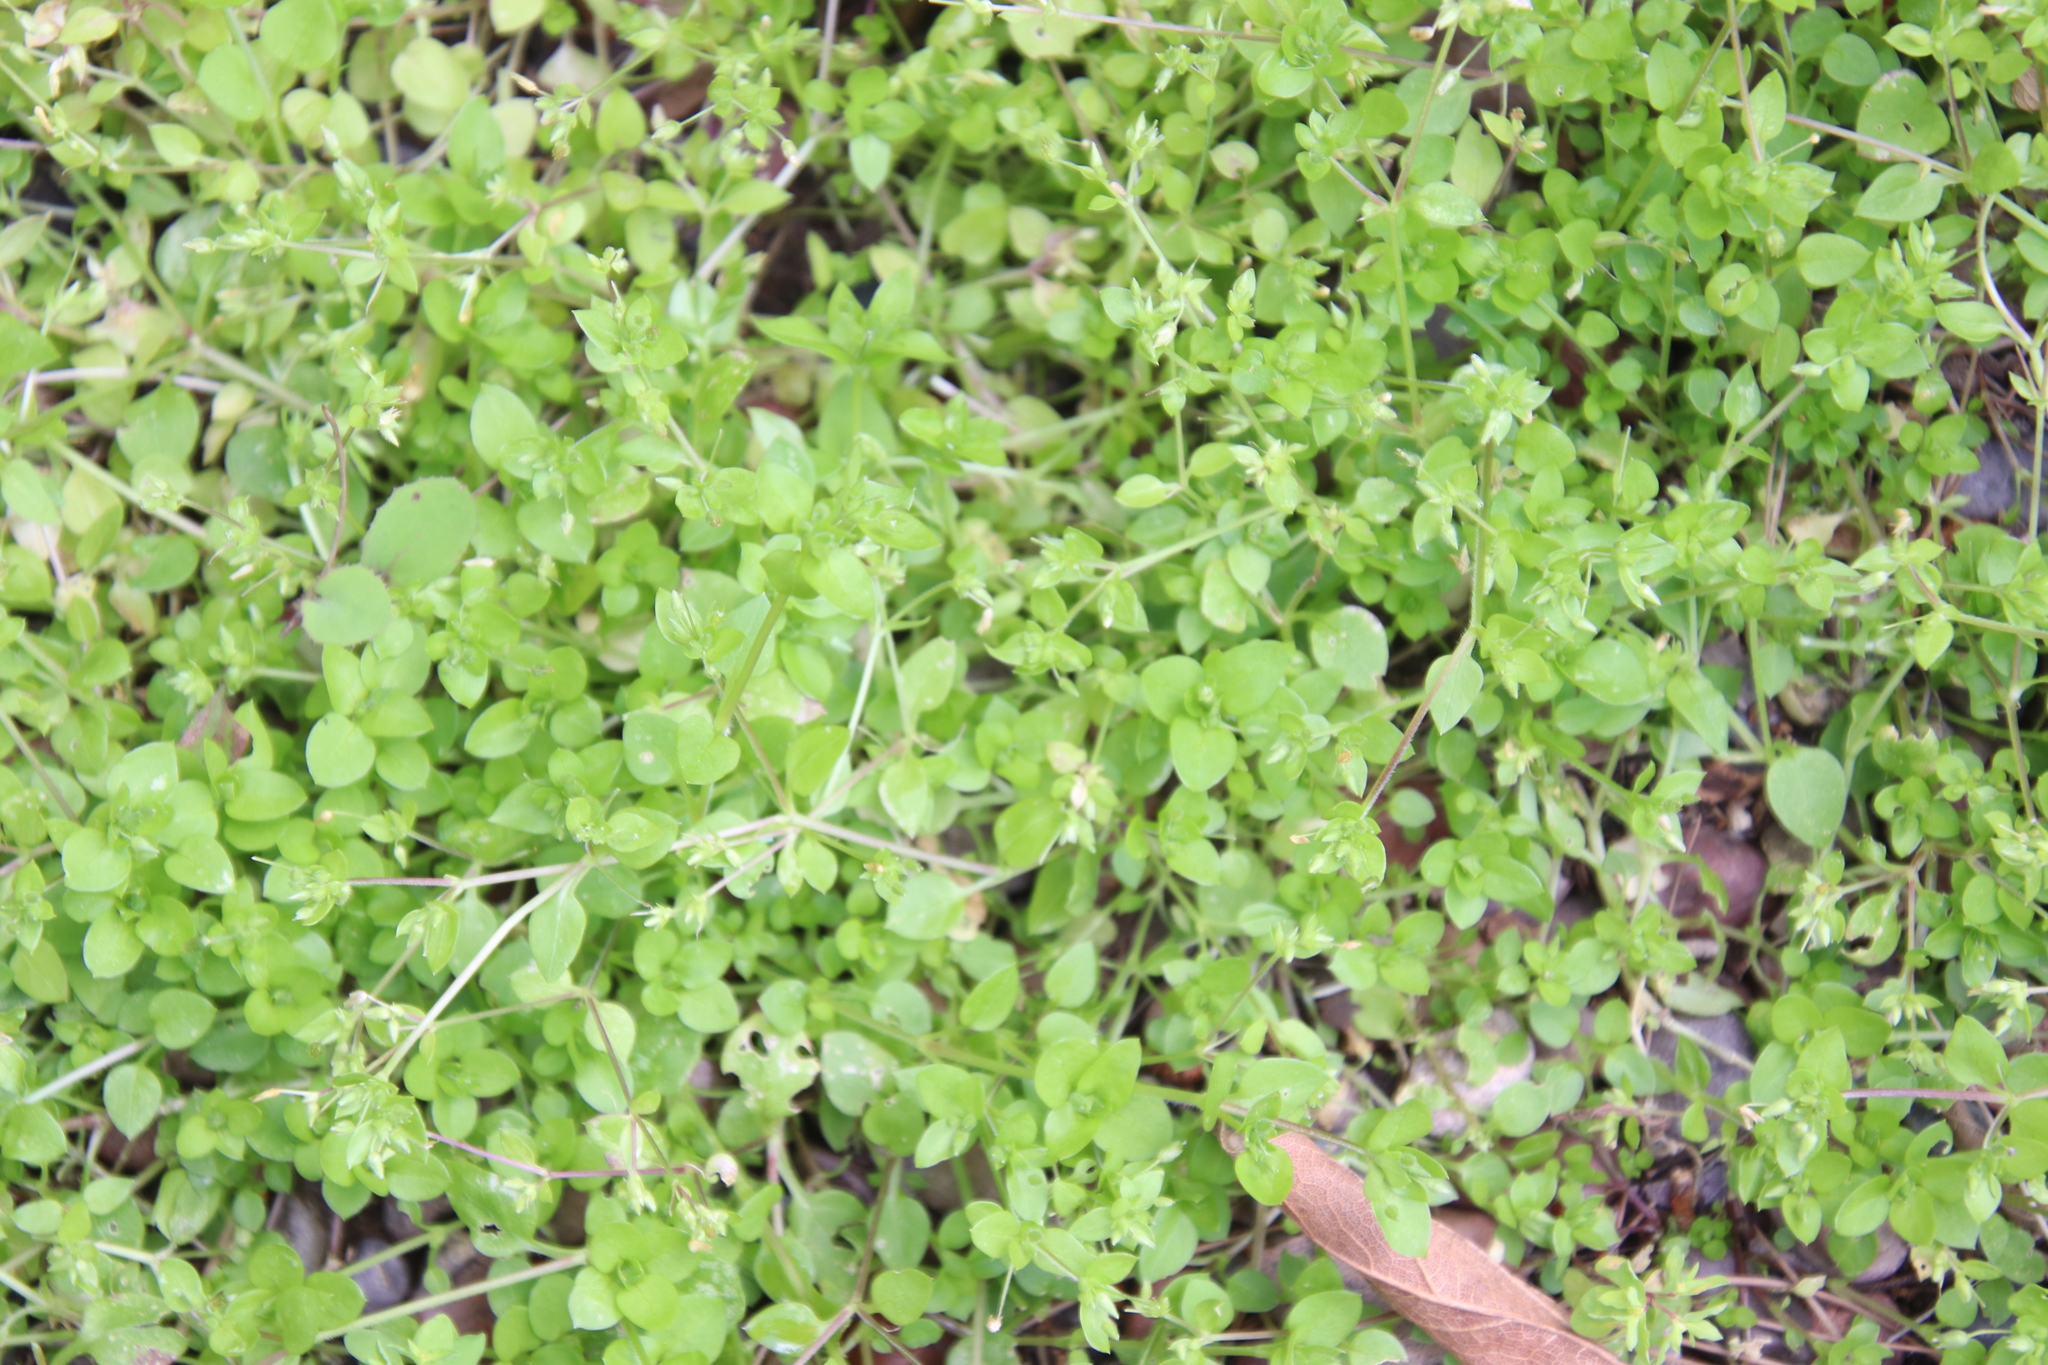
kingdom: Plantae
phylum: Tracheophyta
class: Magnoliopsida
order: Caryophyllales
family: Caryophyllaceae
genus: Stellaria
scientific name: Stellaria apetala
